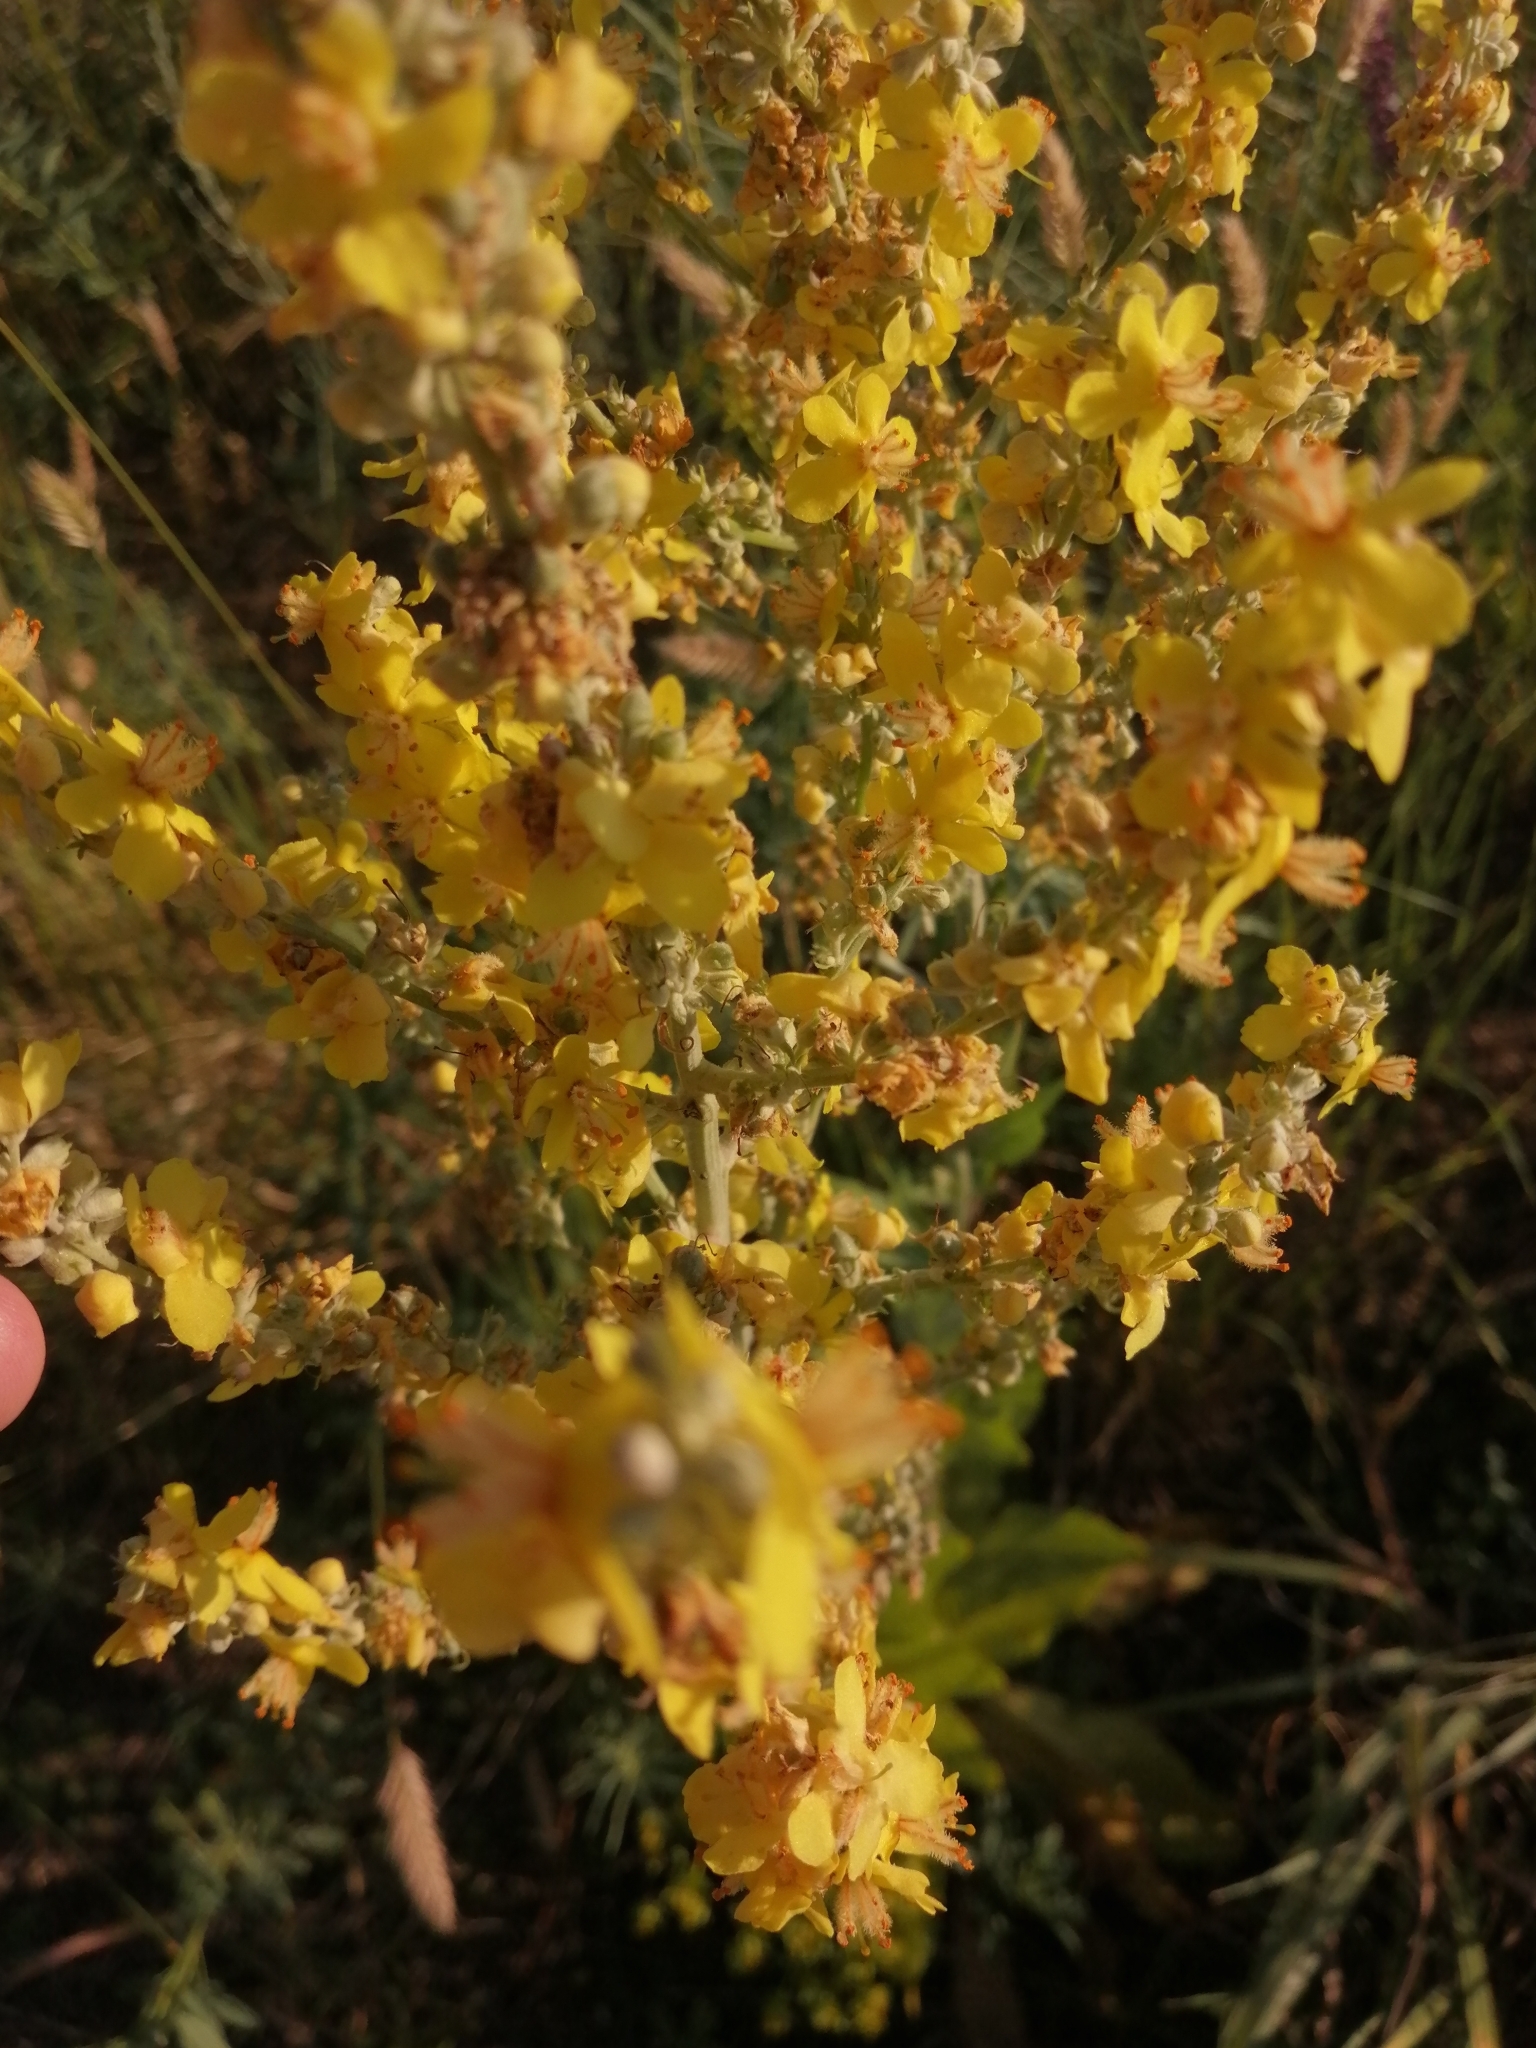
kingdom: Plantae
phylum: Tracheophyta
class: Magnoliopsida
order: Lamiales
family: Scrophulariaceae
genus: Verbascum
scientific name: Verbascum lychnitis
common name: White mullein
